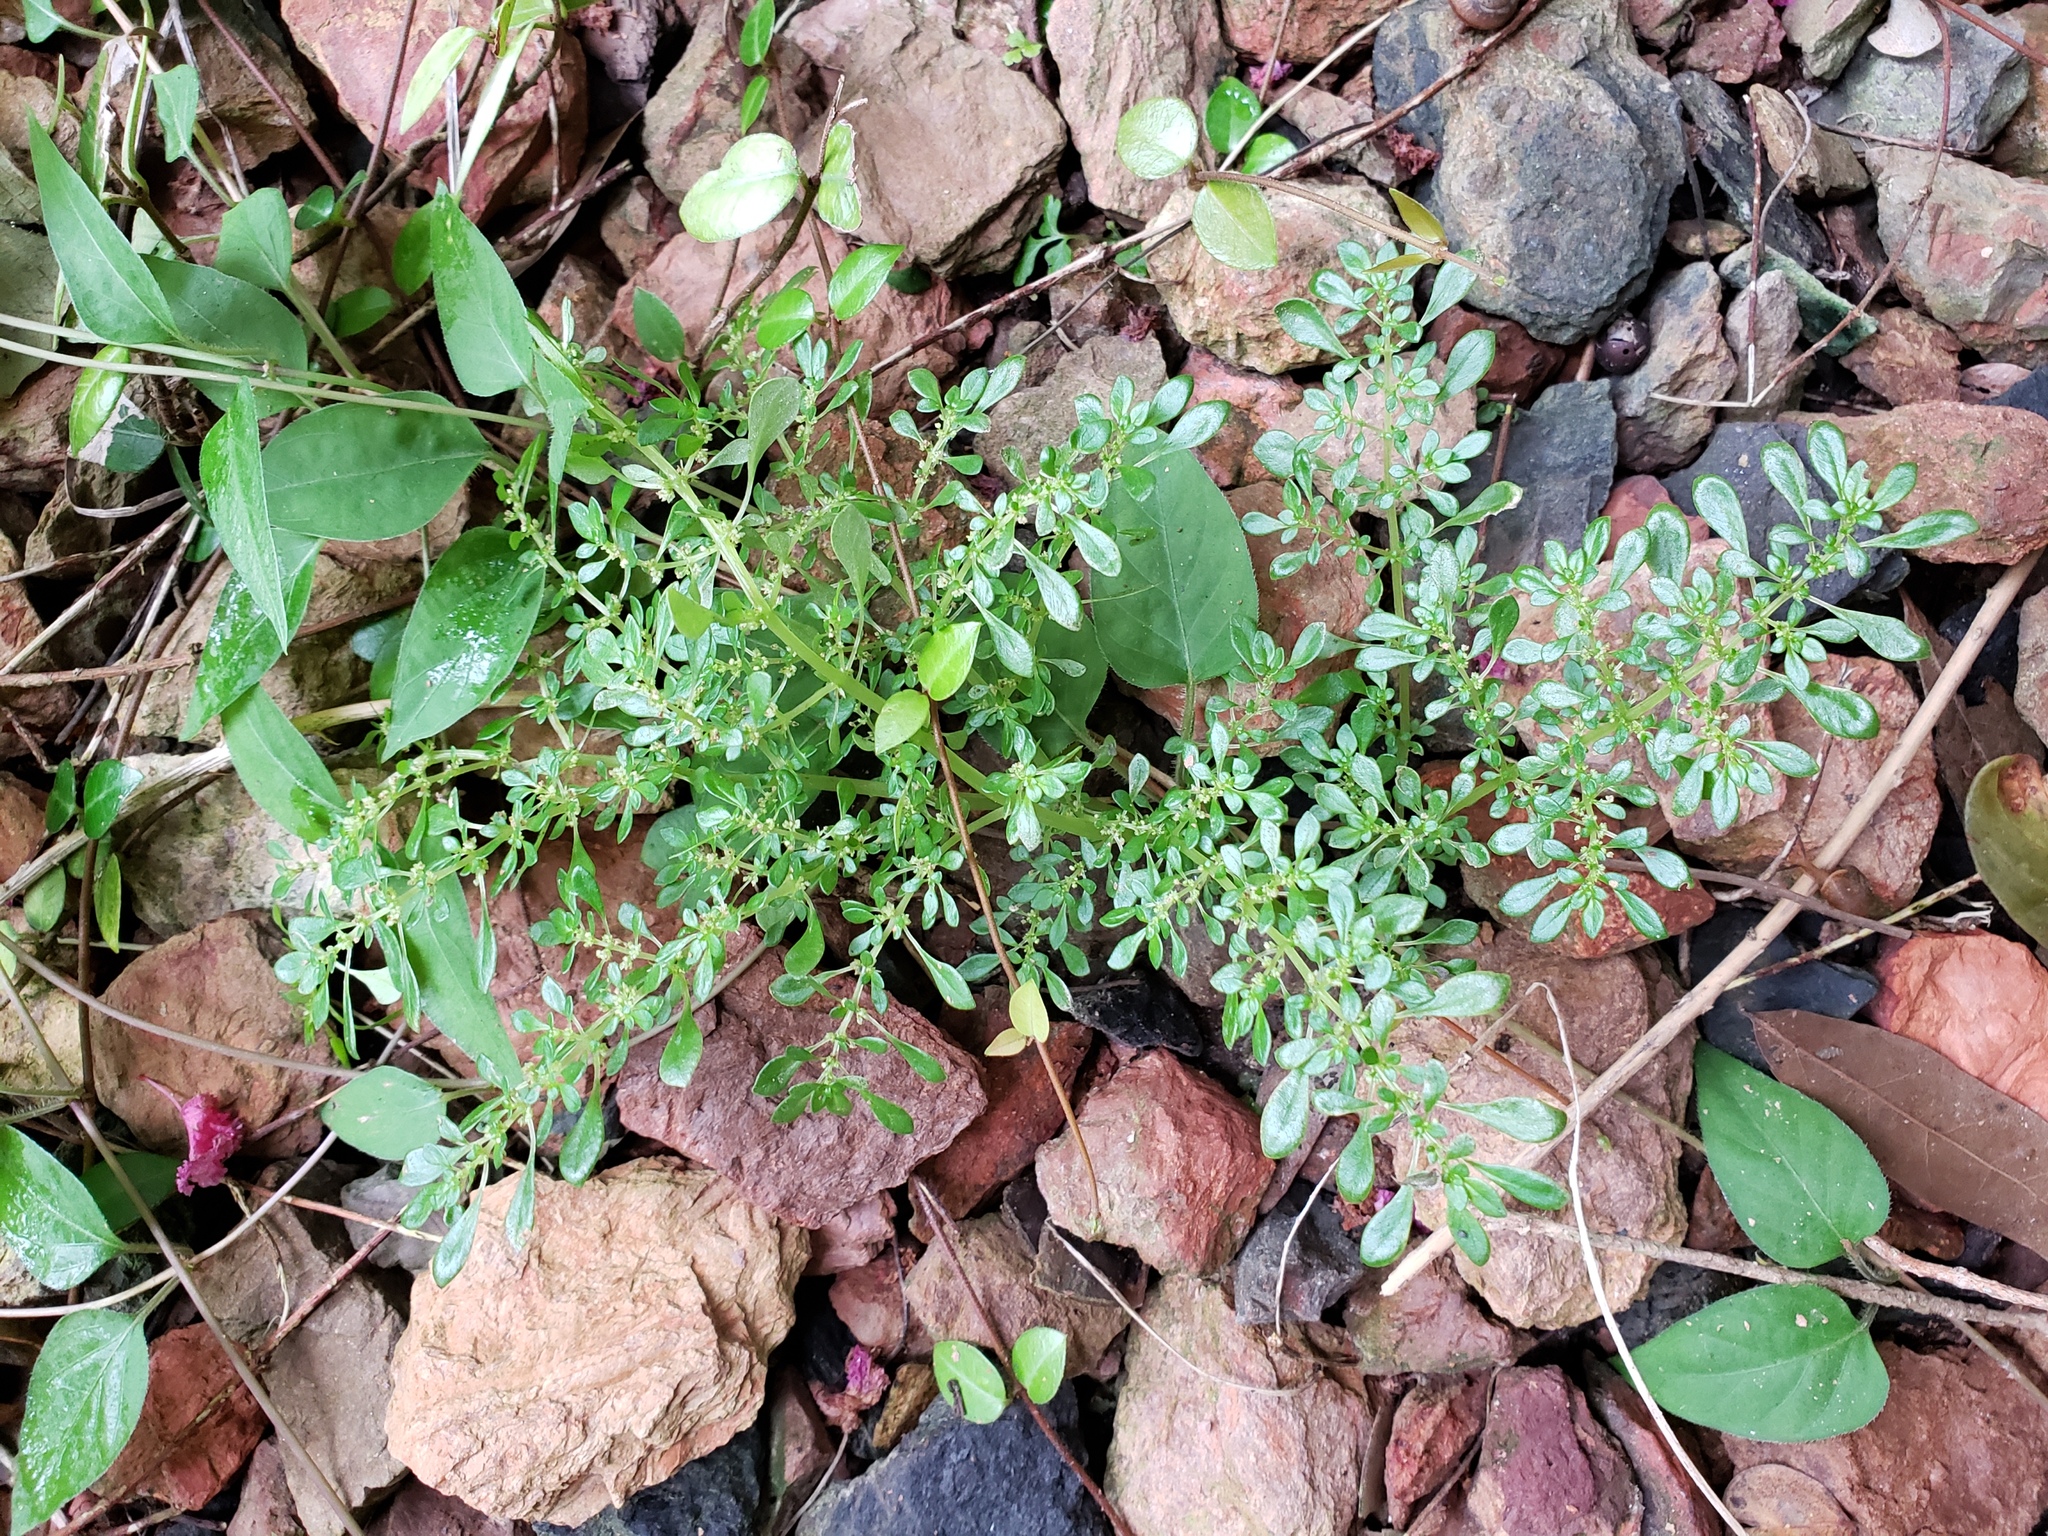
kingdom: Plantae
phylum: Tracheophyta
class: Magnoliopsida
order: Rosales
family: Urticaceae
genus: Pilea
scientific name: Pilea microphylla
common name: Artillery-plant
